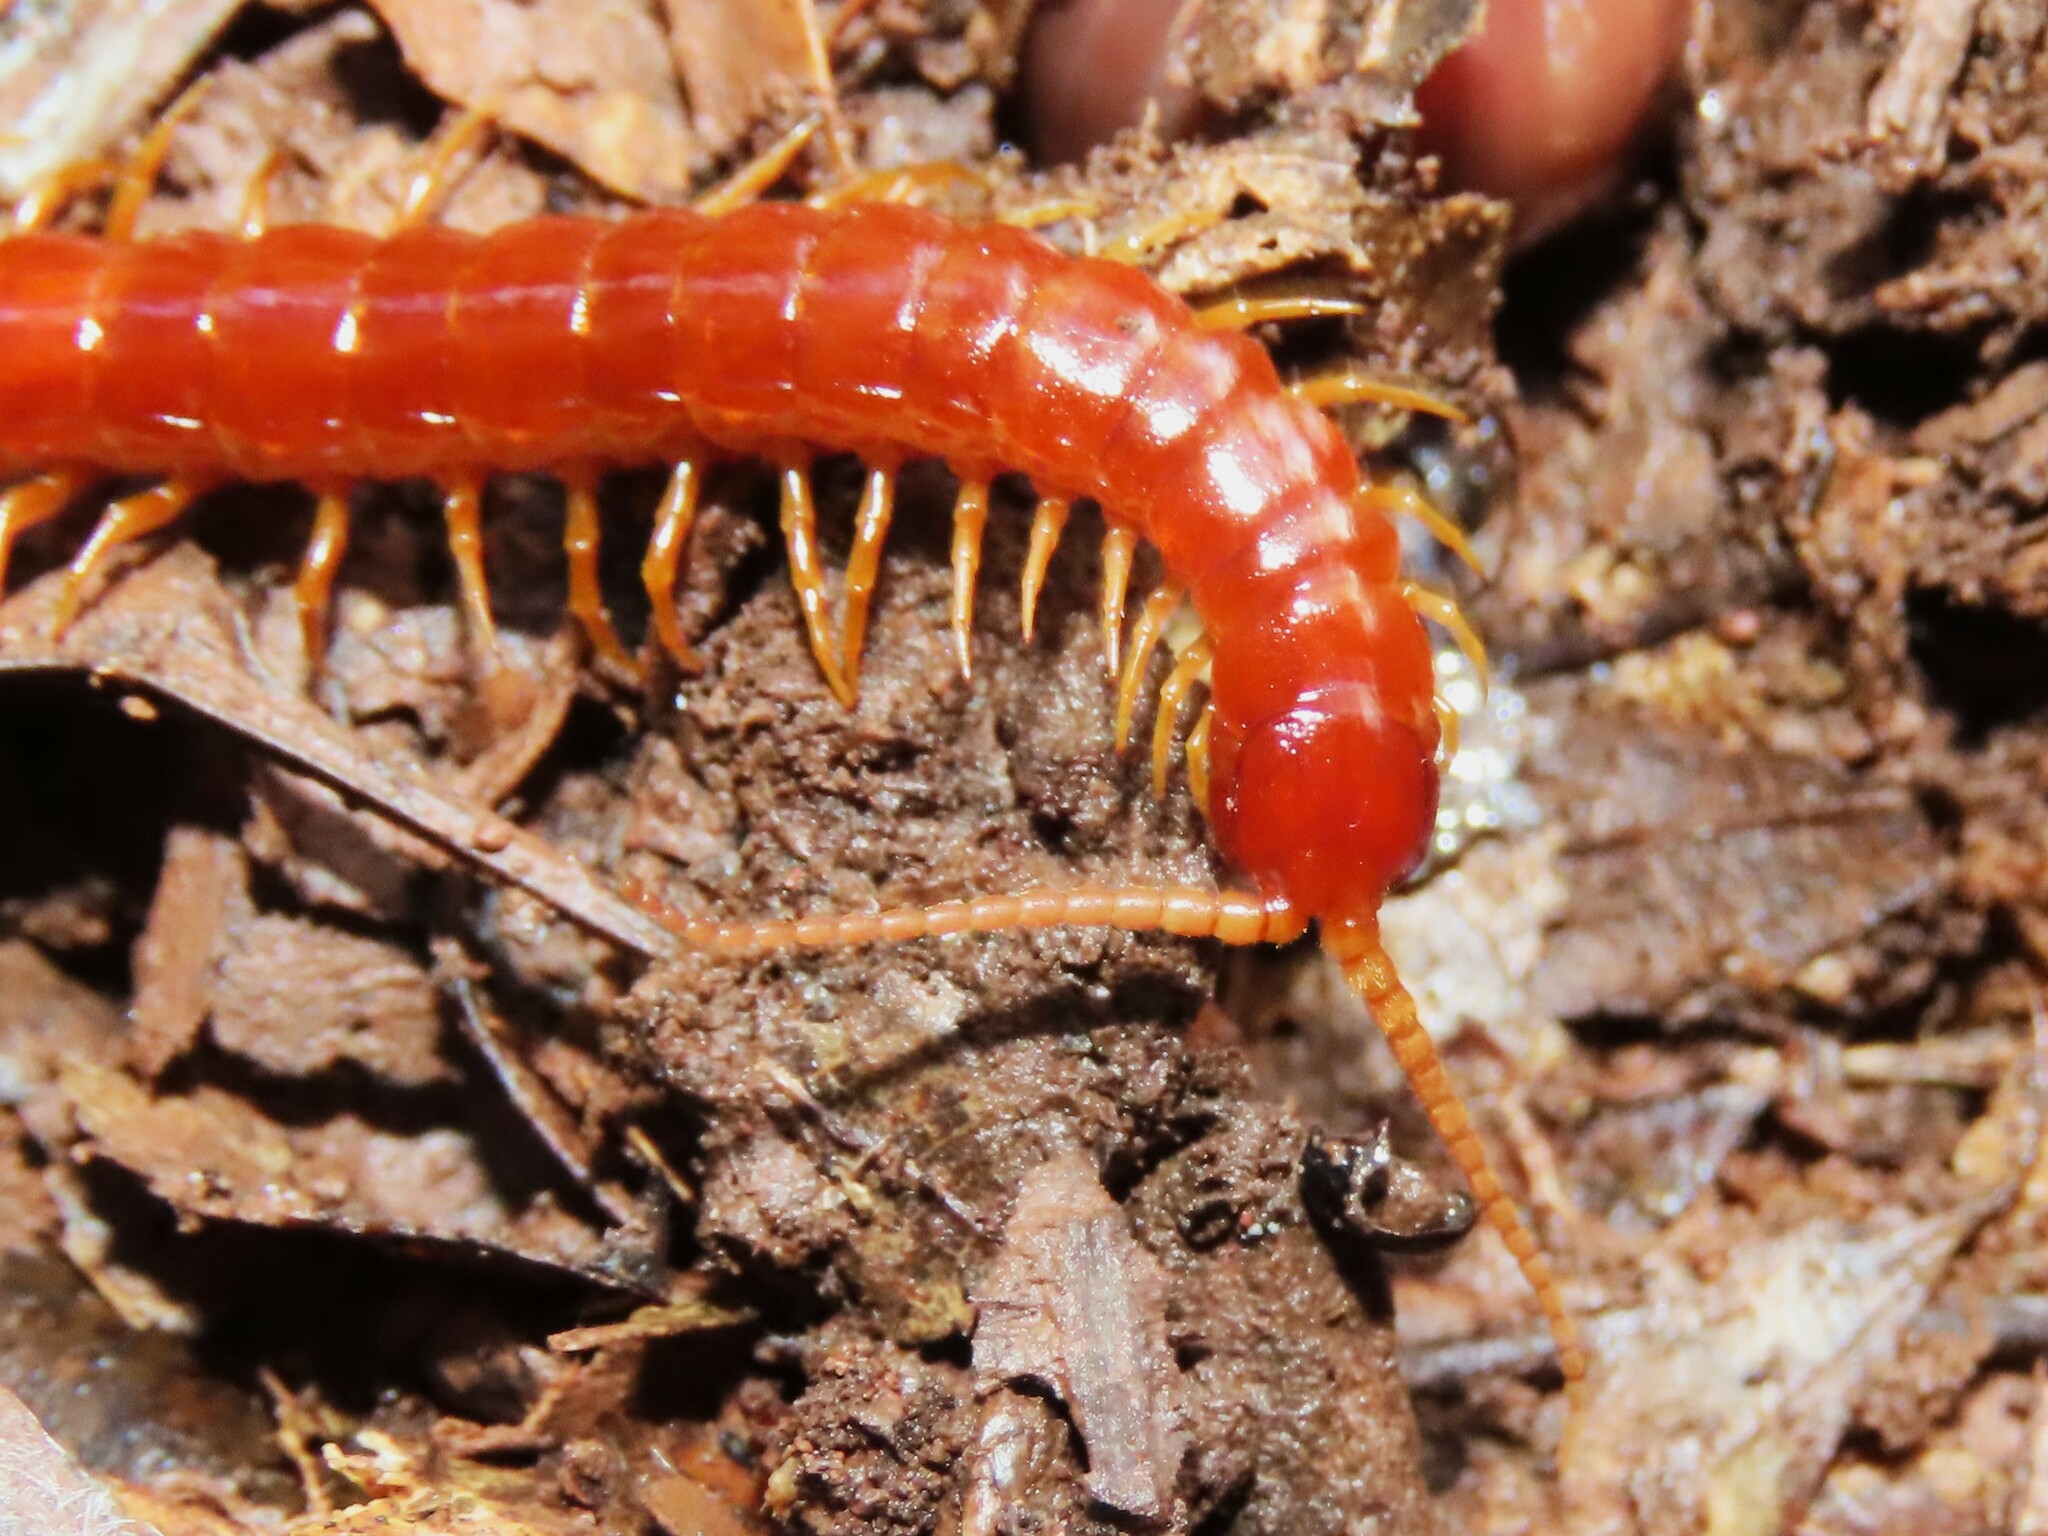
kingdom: Animalia
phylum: Arthropoda
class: Chilopoda
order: Scolopendromorpha
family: Scolopocryptopidae
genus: Scolopocryptops
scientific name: Scolopocryptops sexspinosus
